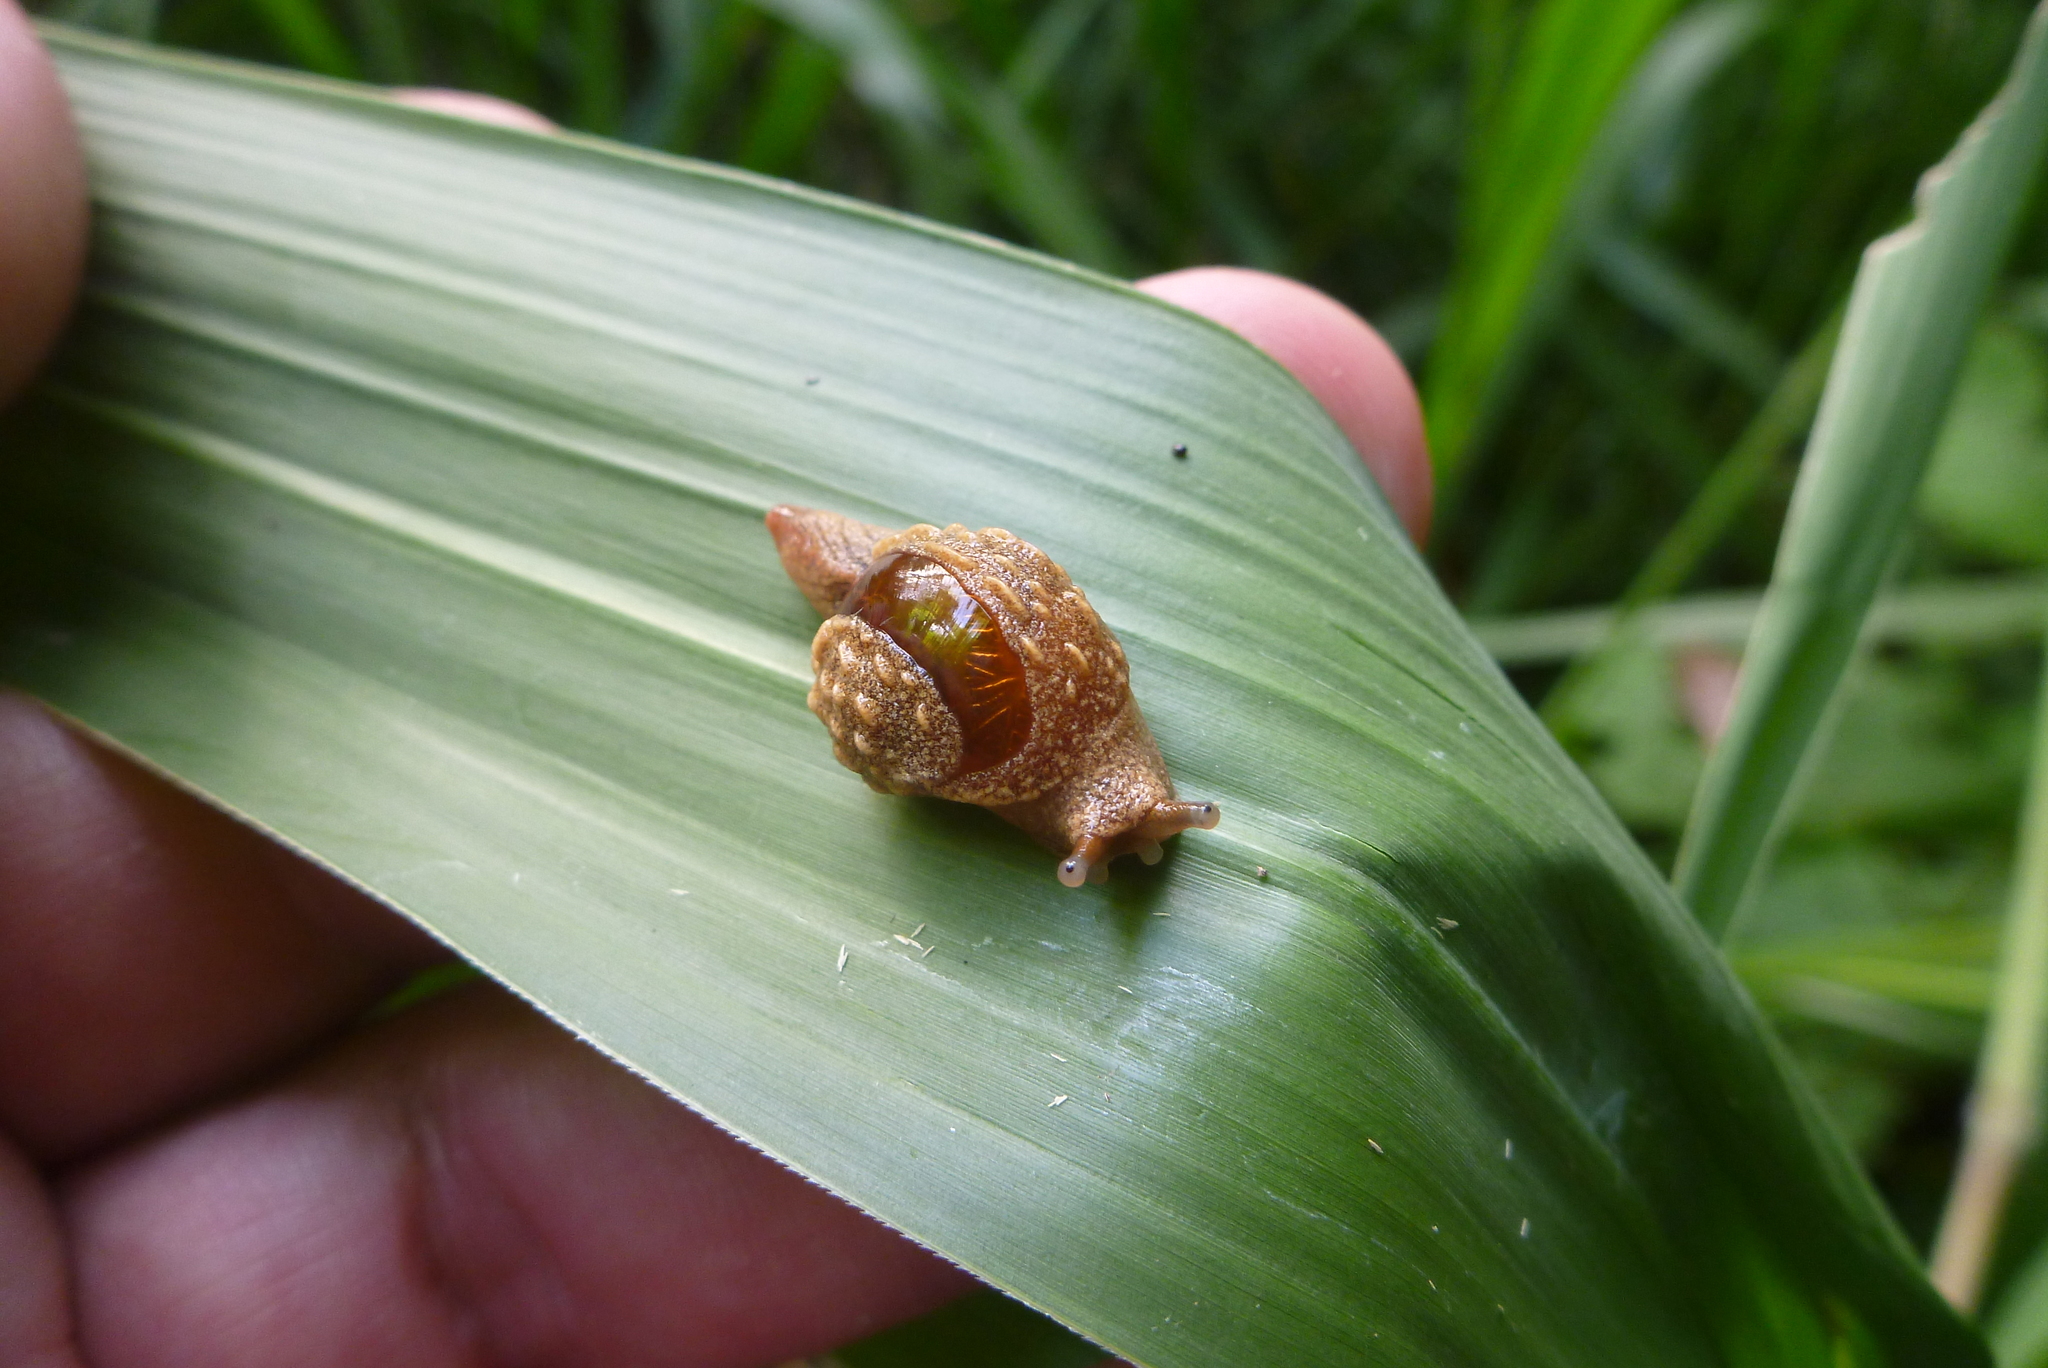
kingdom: Animalia
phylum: Mollusca
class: Gastropoda
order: Stylommatophora
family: Helicarionidae
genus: Fastosarion
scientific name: Fastosarion brazieri
